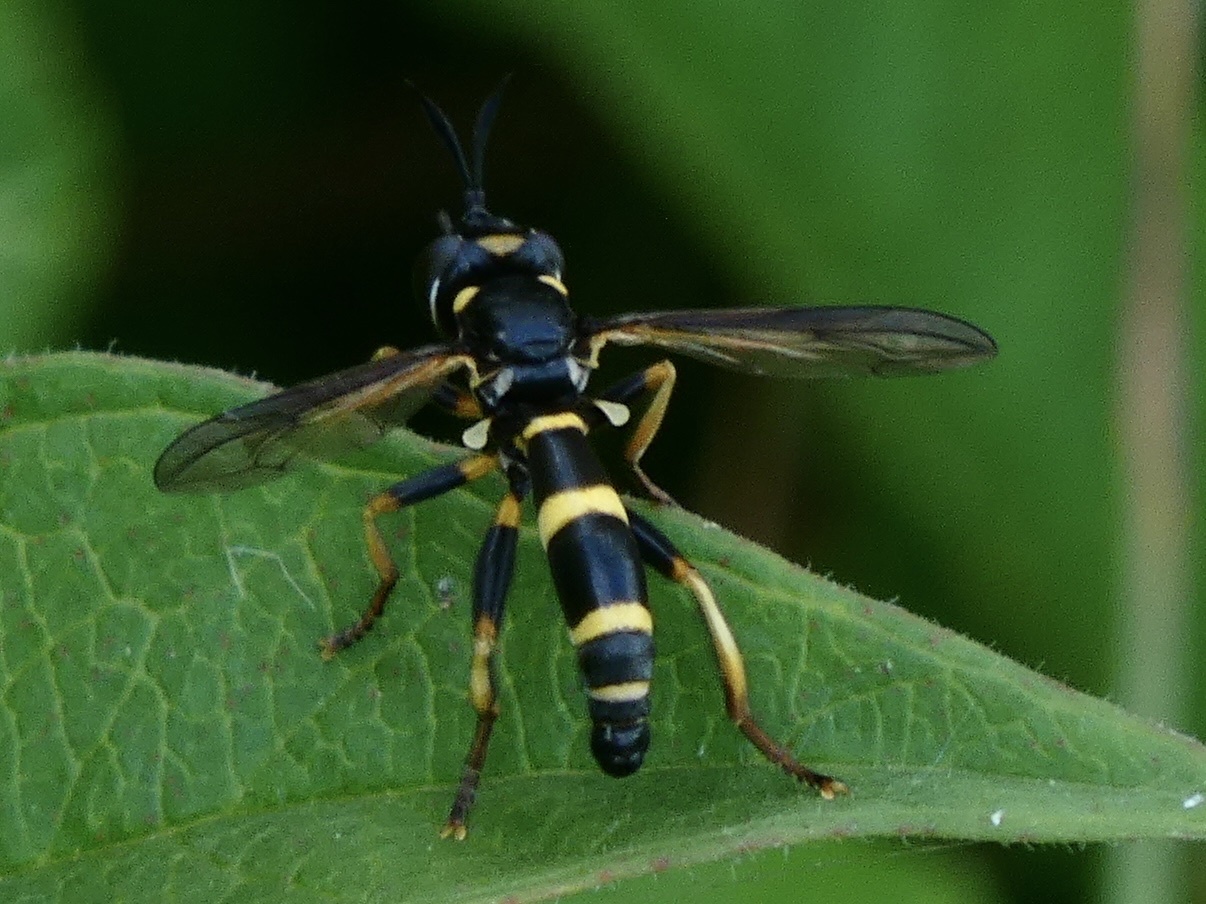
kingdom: Animalia
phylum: Arthropoda
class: Insecta
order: Diptera
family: Conopidae
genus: Conops
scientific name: Conops ceriaeformis
